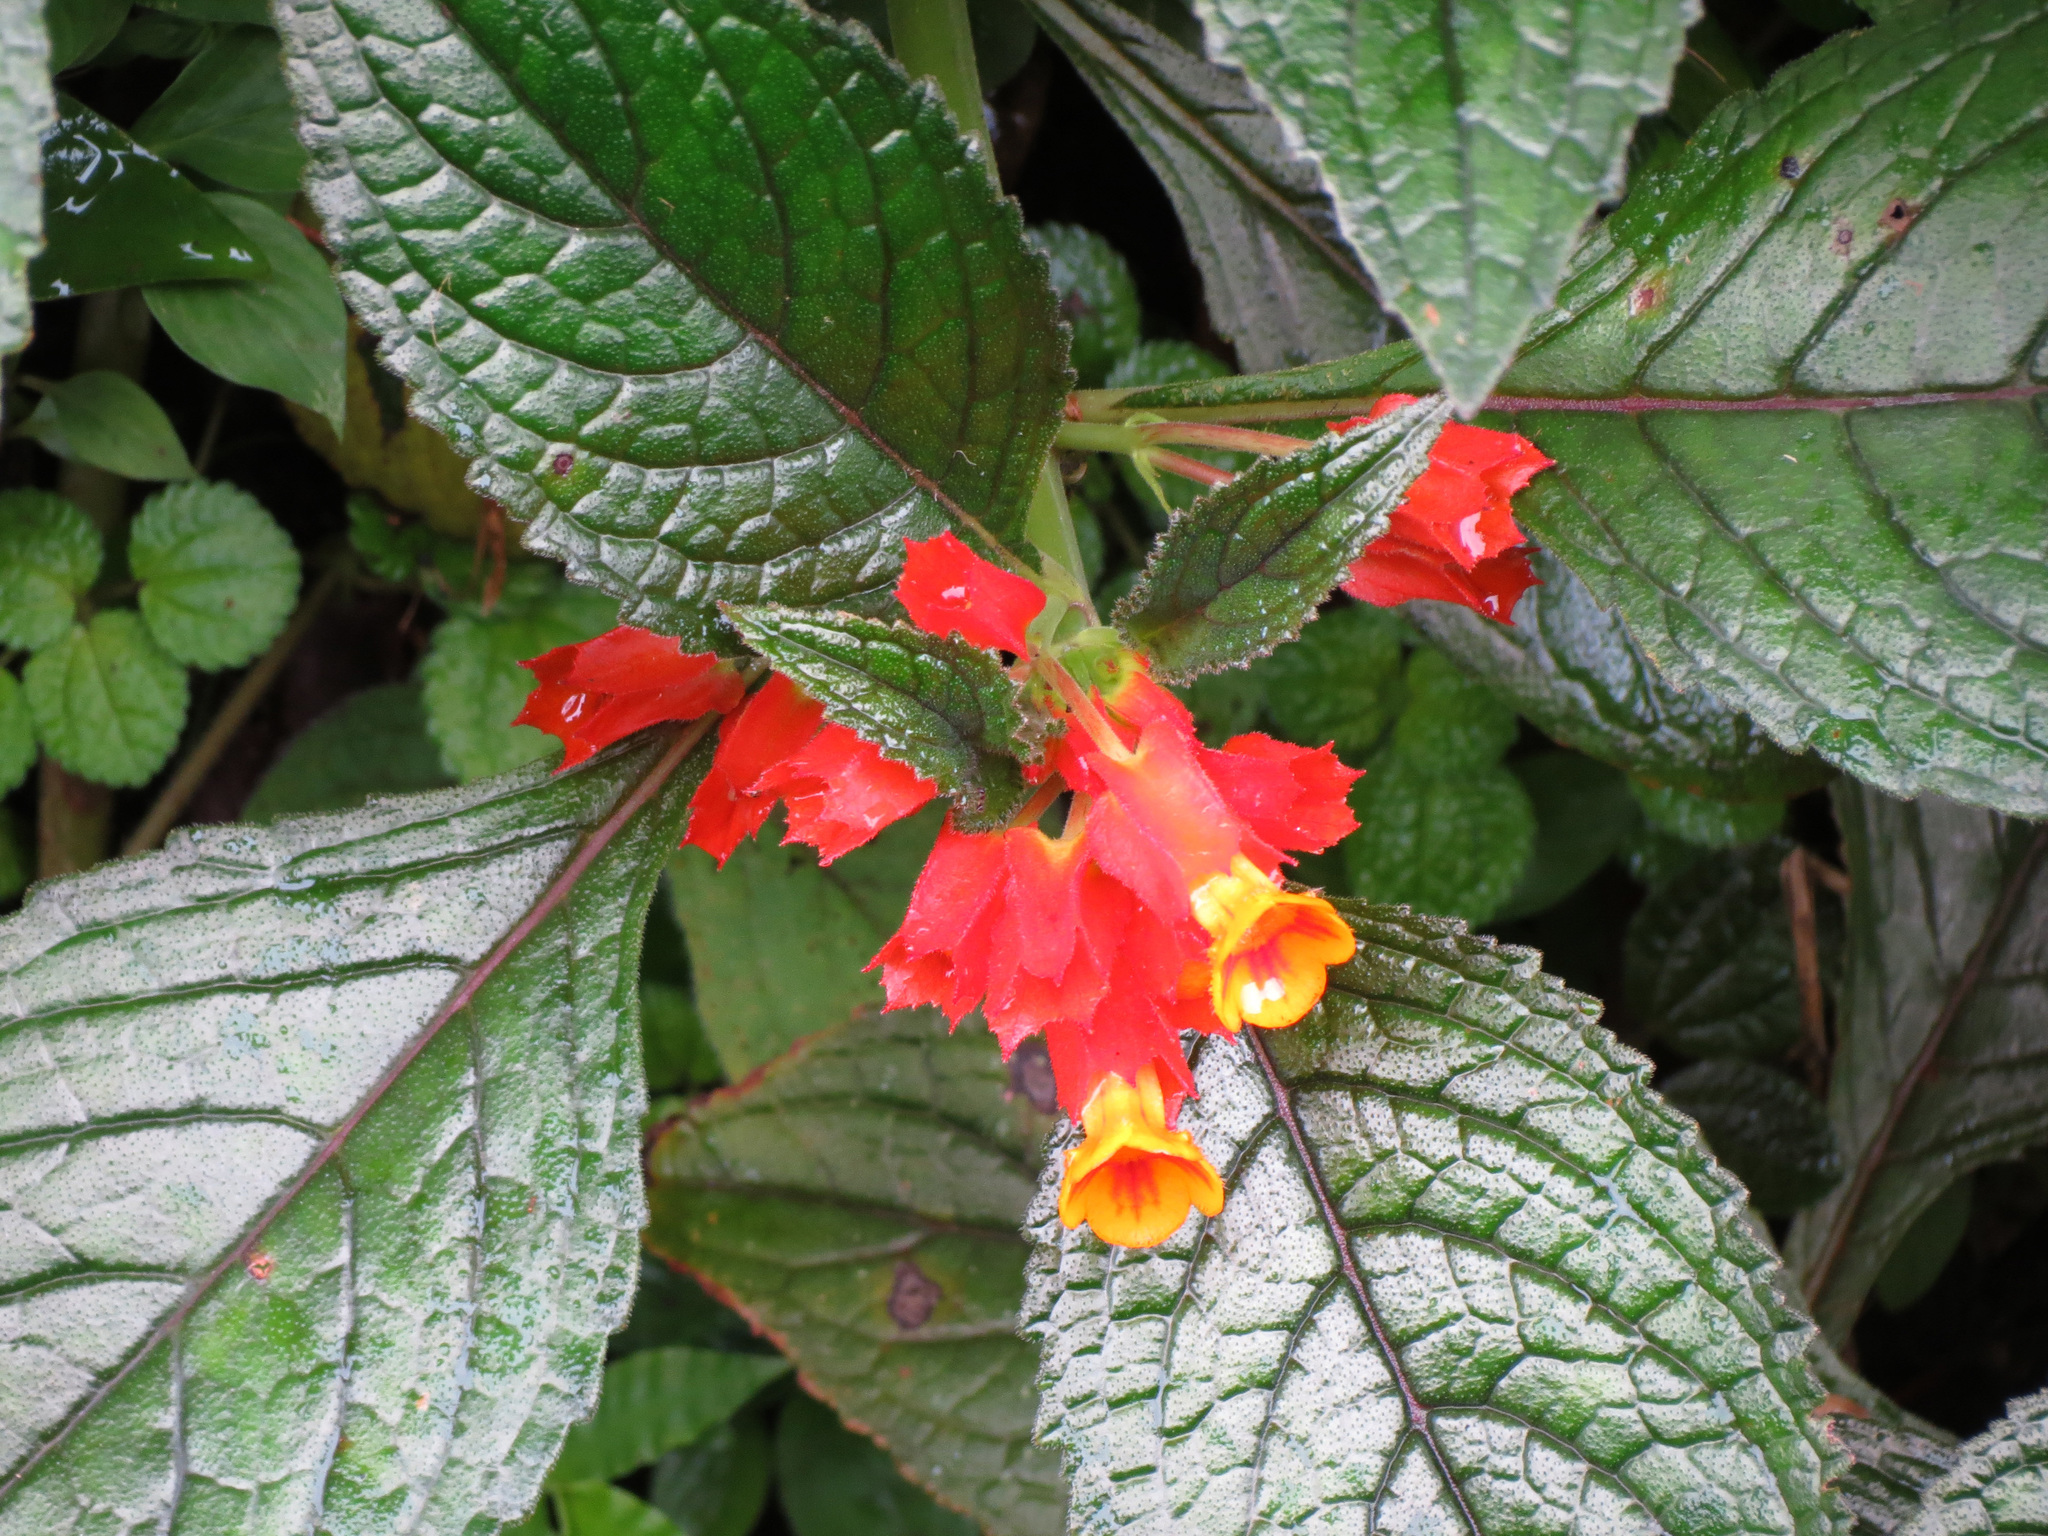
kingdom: Plantae
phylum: Tracheophyta
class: Magnoliopsida
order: Lamiales
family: Gesneriaceae
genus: Chrysothemis
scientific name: Chrysothemis pulchella
